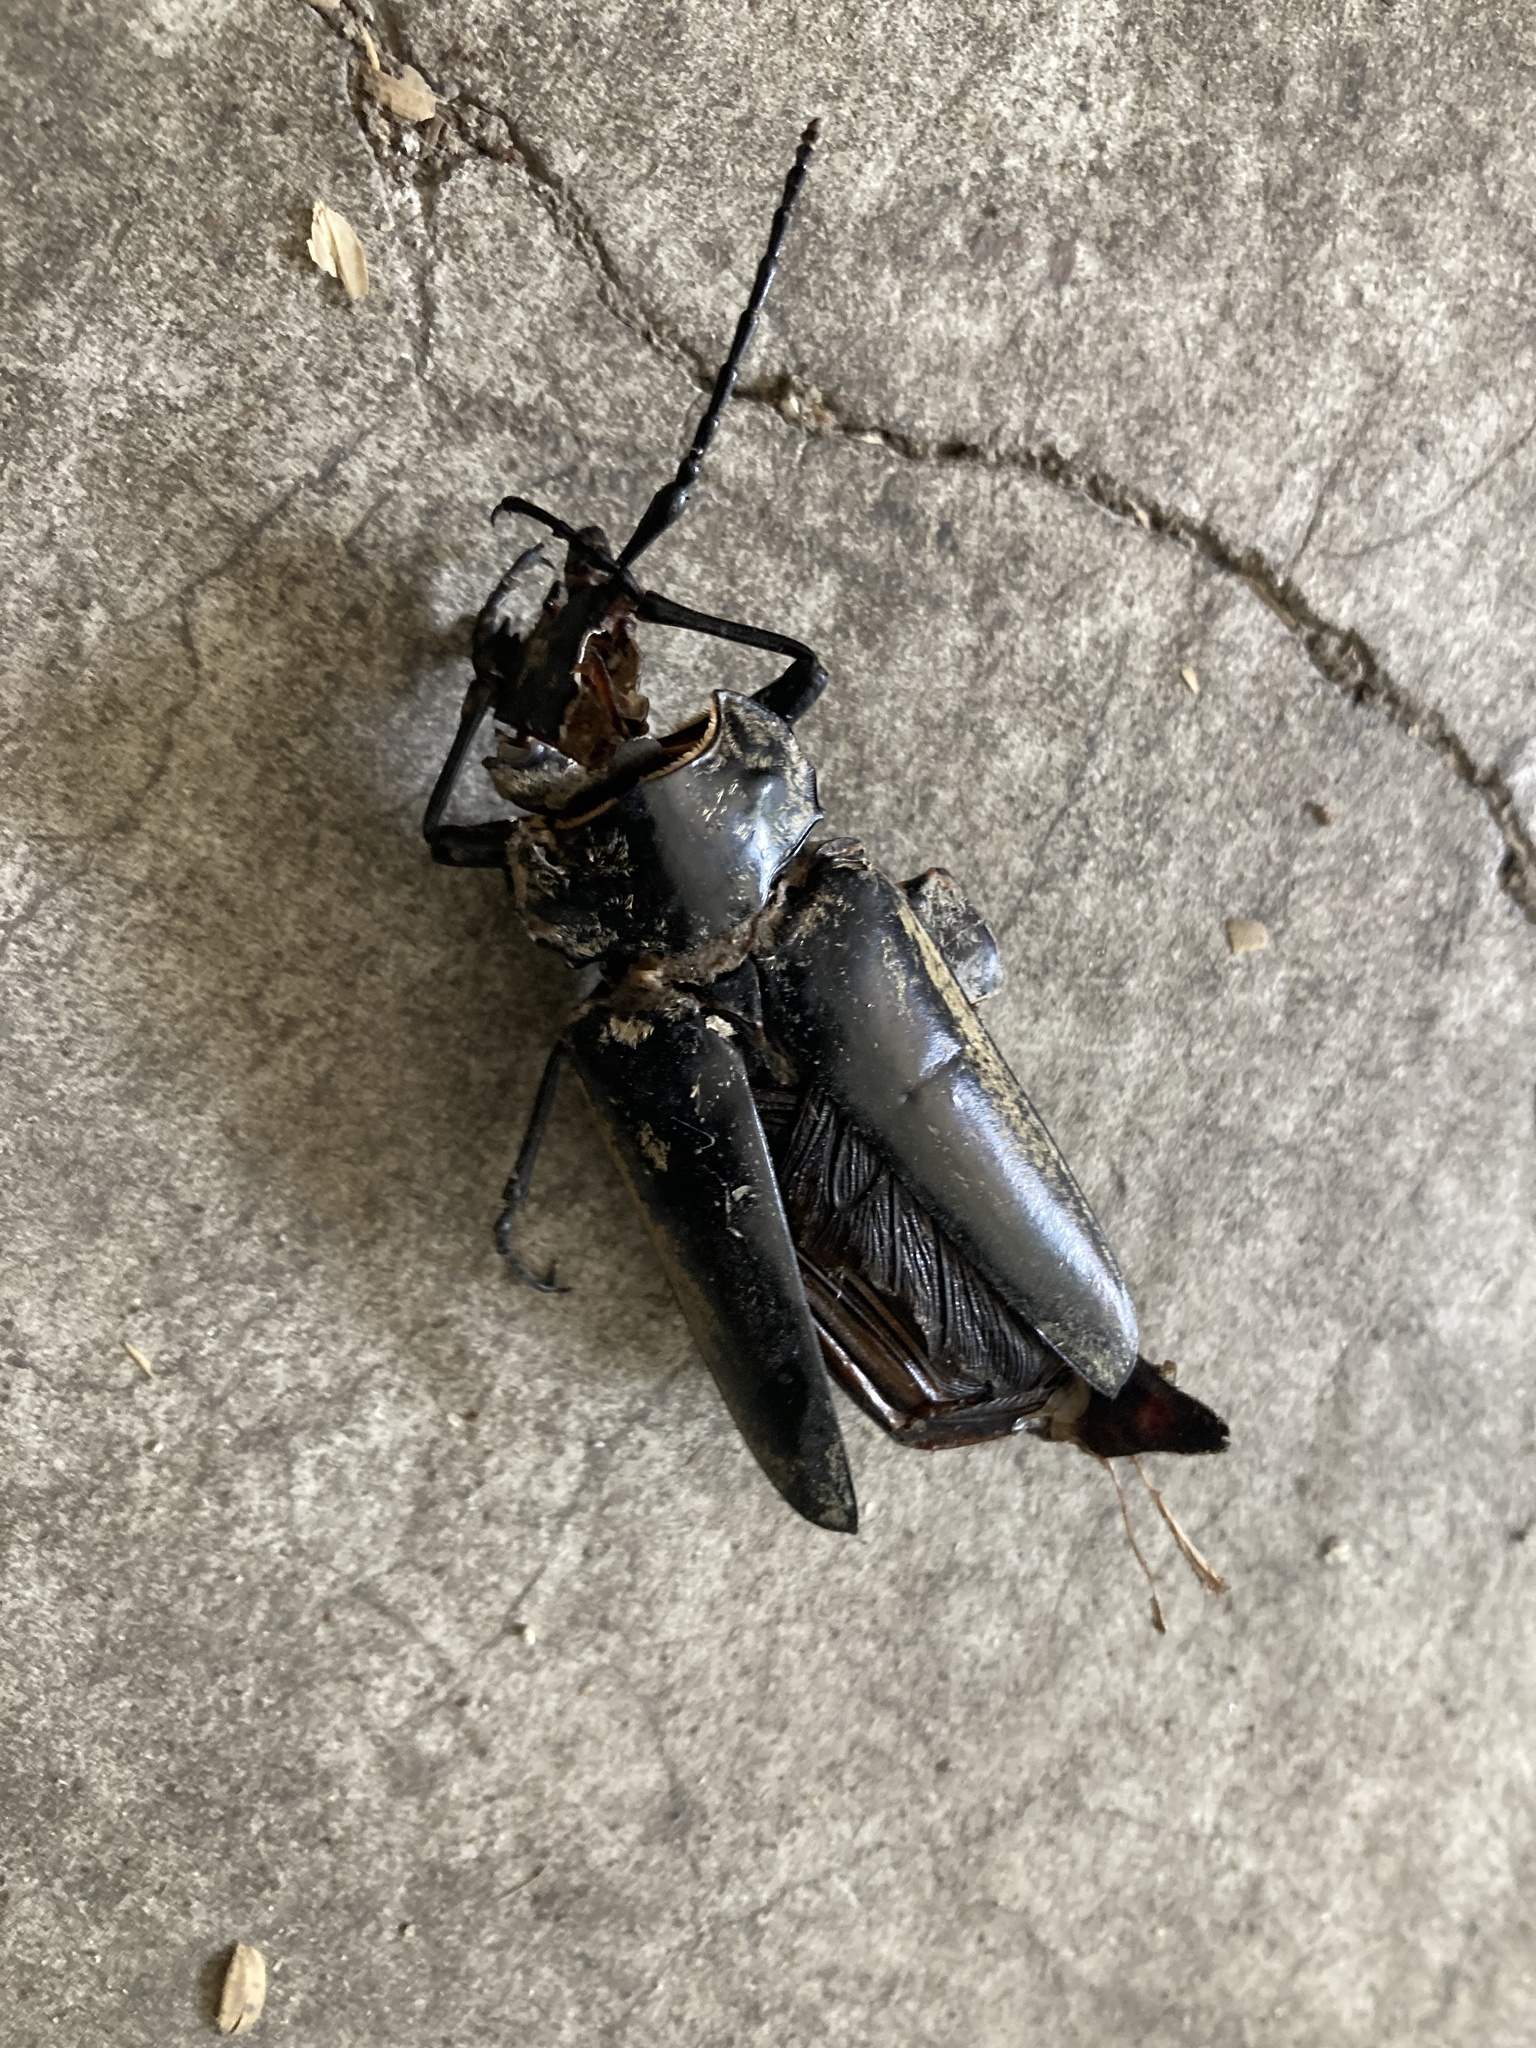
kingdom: Animalia
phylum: Arthropoda
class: Insecta
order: Coleoptera
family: Trictenotomidae
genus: Trictenotoma
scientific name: Trictenotoma formosana
